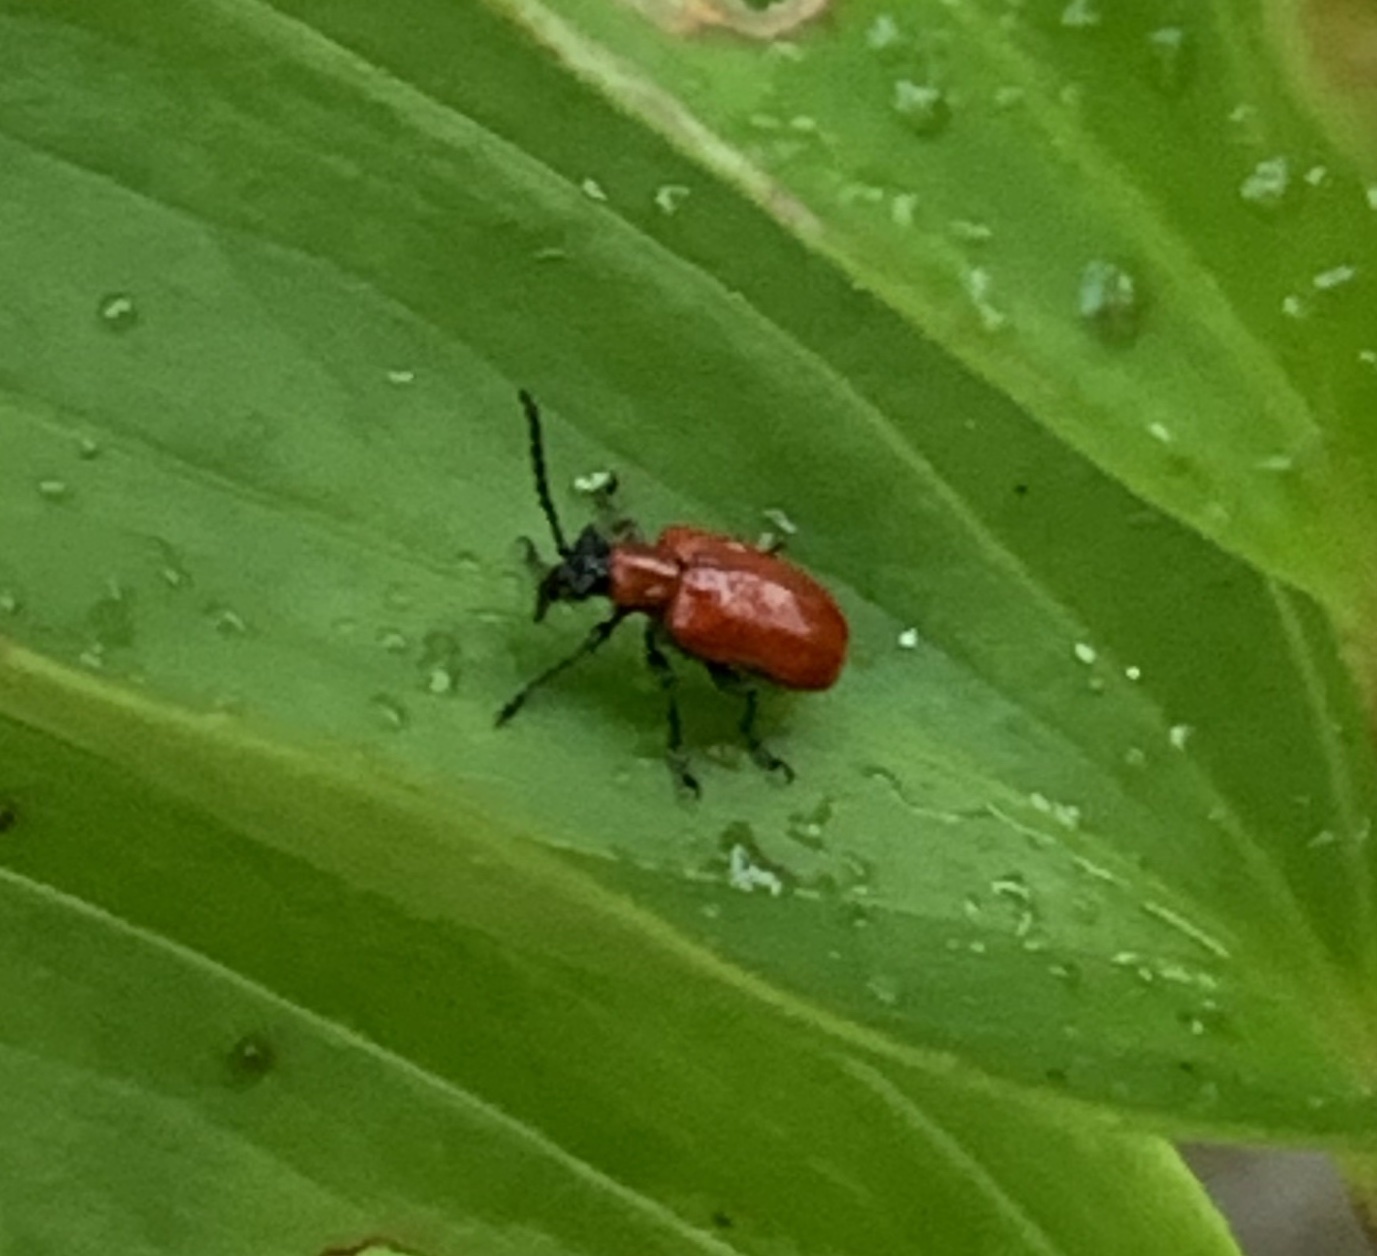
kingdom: Animalia
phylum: Arthropoda
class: Insecta
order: Coleoptera
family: Chrysomelidae
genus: Lilioceris
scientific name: Lilioceris lilii
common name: Lily beetle
